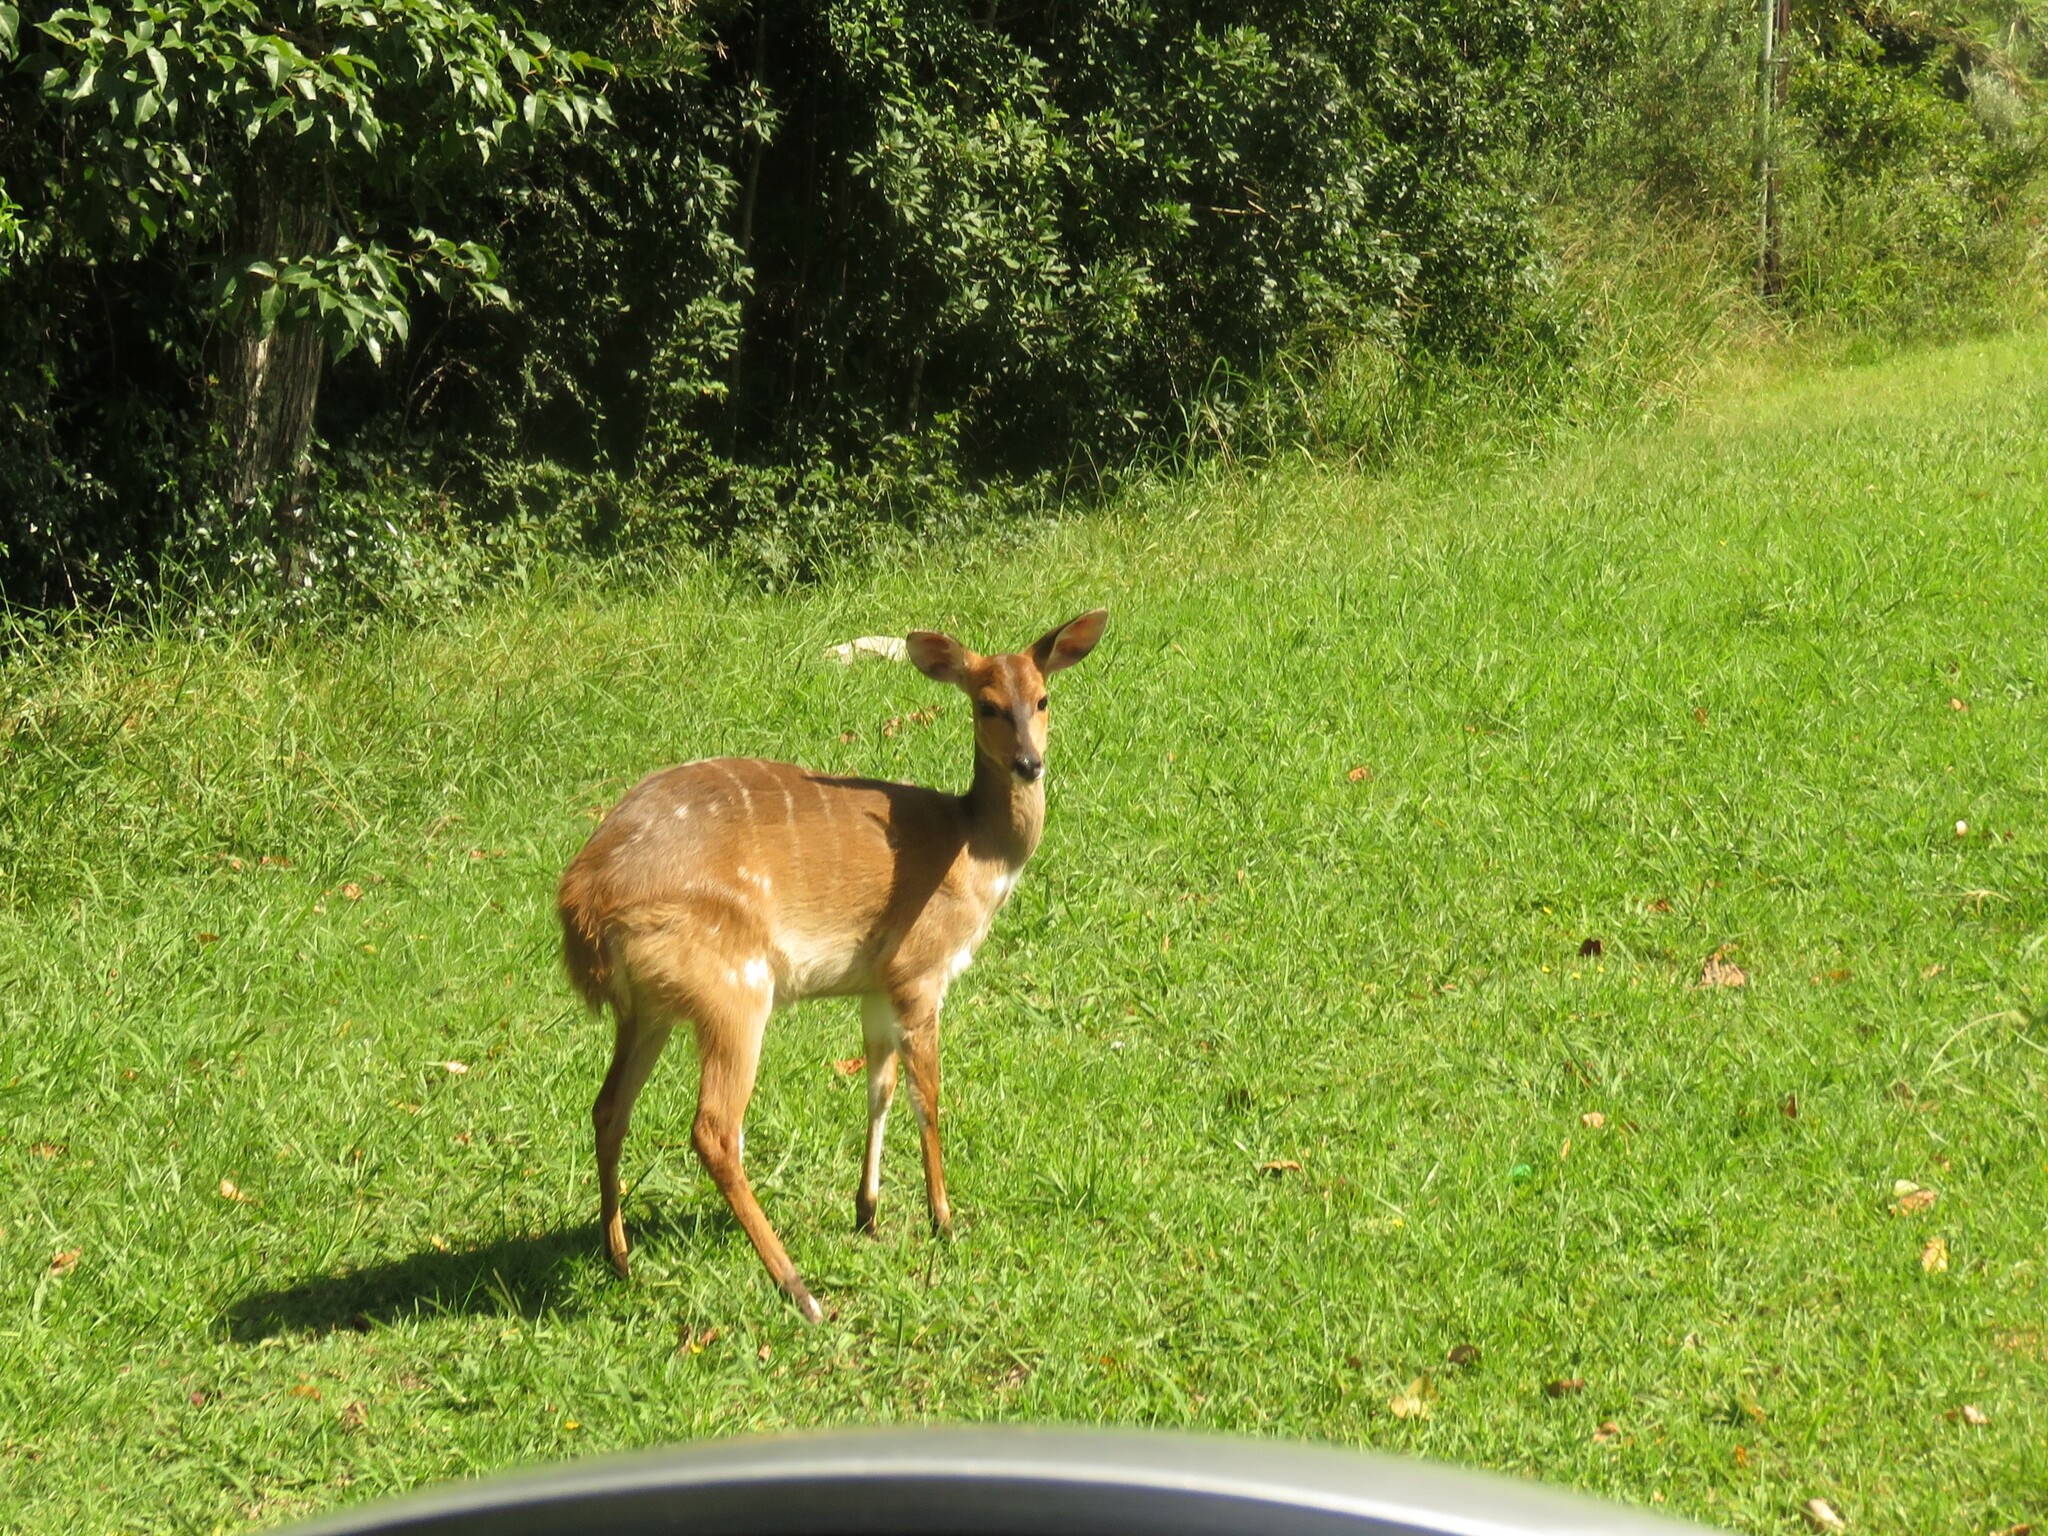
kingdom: Animalia
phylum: Chordata
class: Mammalia
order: Artiodactyla
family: Bovidae
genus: Tragelaphus
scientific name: Tragelaphus scriptus
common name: Bushbuck
